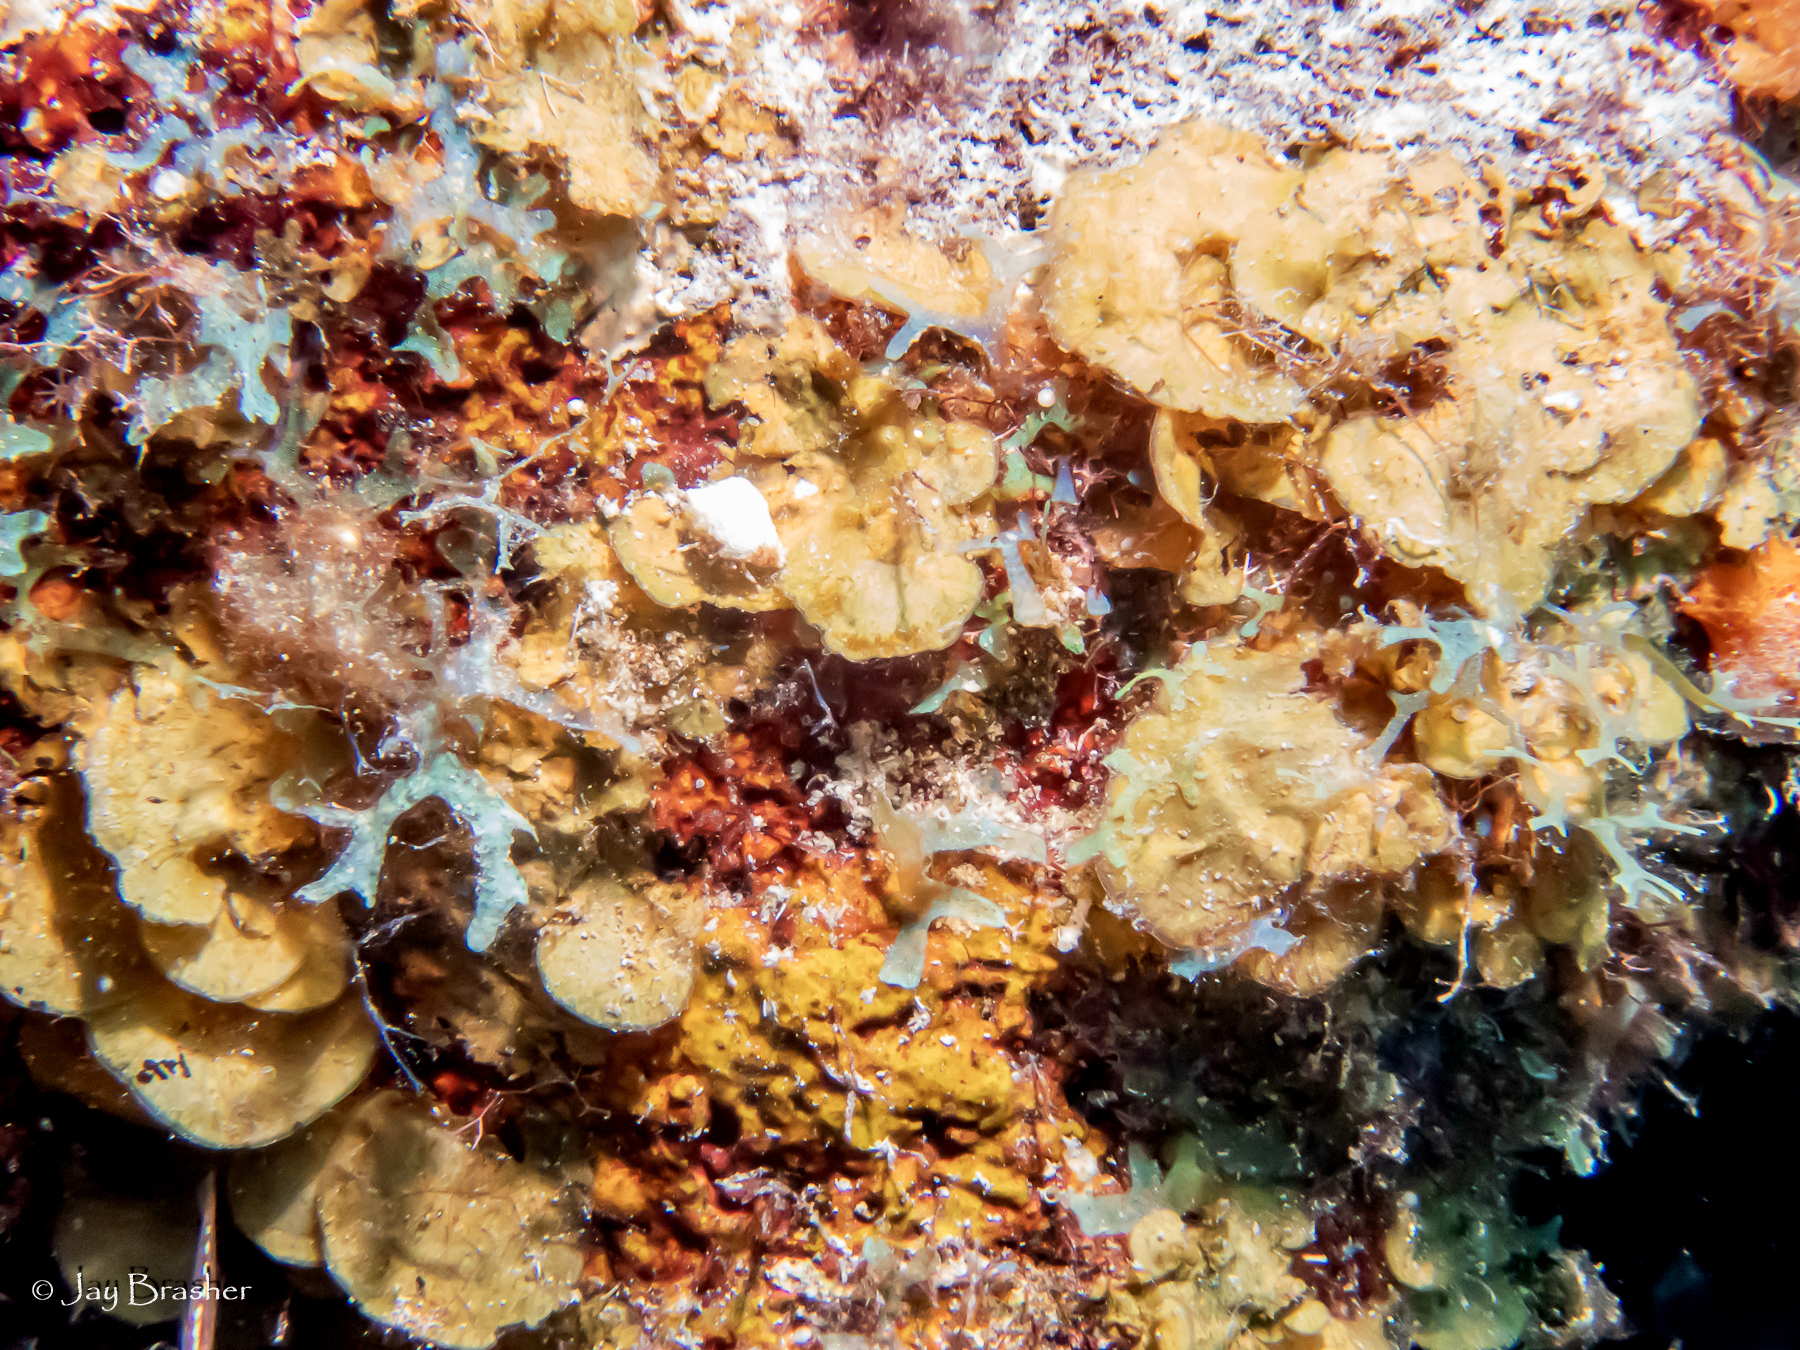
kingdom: Chromista
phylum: Ochrophyta
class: Phaeophyceae
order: Dictyotales
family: Dictyotaceae
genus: Lobophora
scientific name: Lobophora variegata
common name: Encrusting fan-leaf algae
